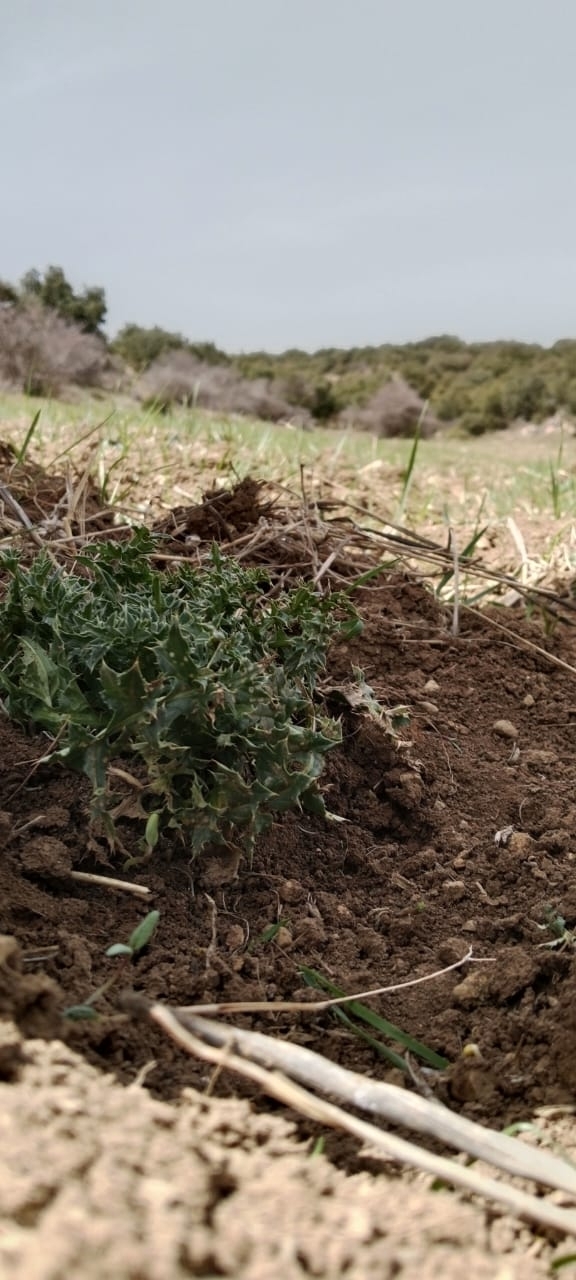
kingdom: Plantae
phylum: Tracheophyta
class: Magnoliopsida
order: Asterales
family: Asteraceae
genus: Carduus
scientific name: Carduus macrocephalus
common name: Giant thistle
